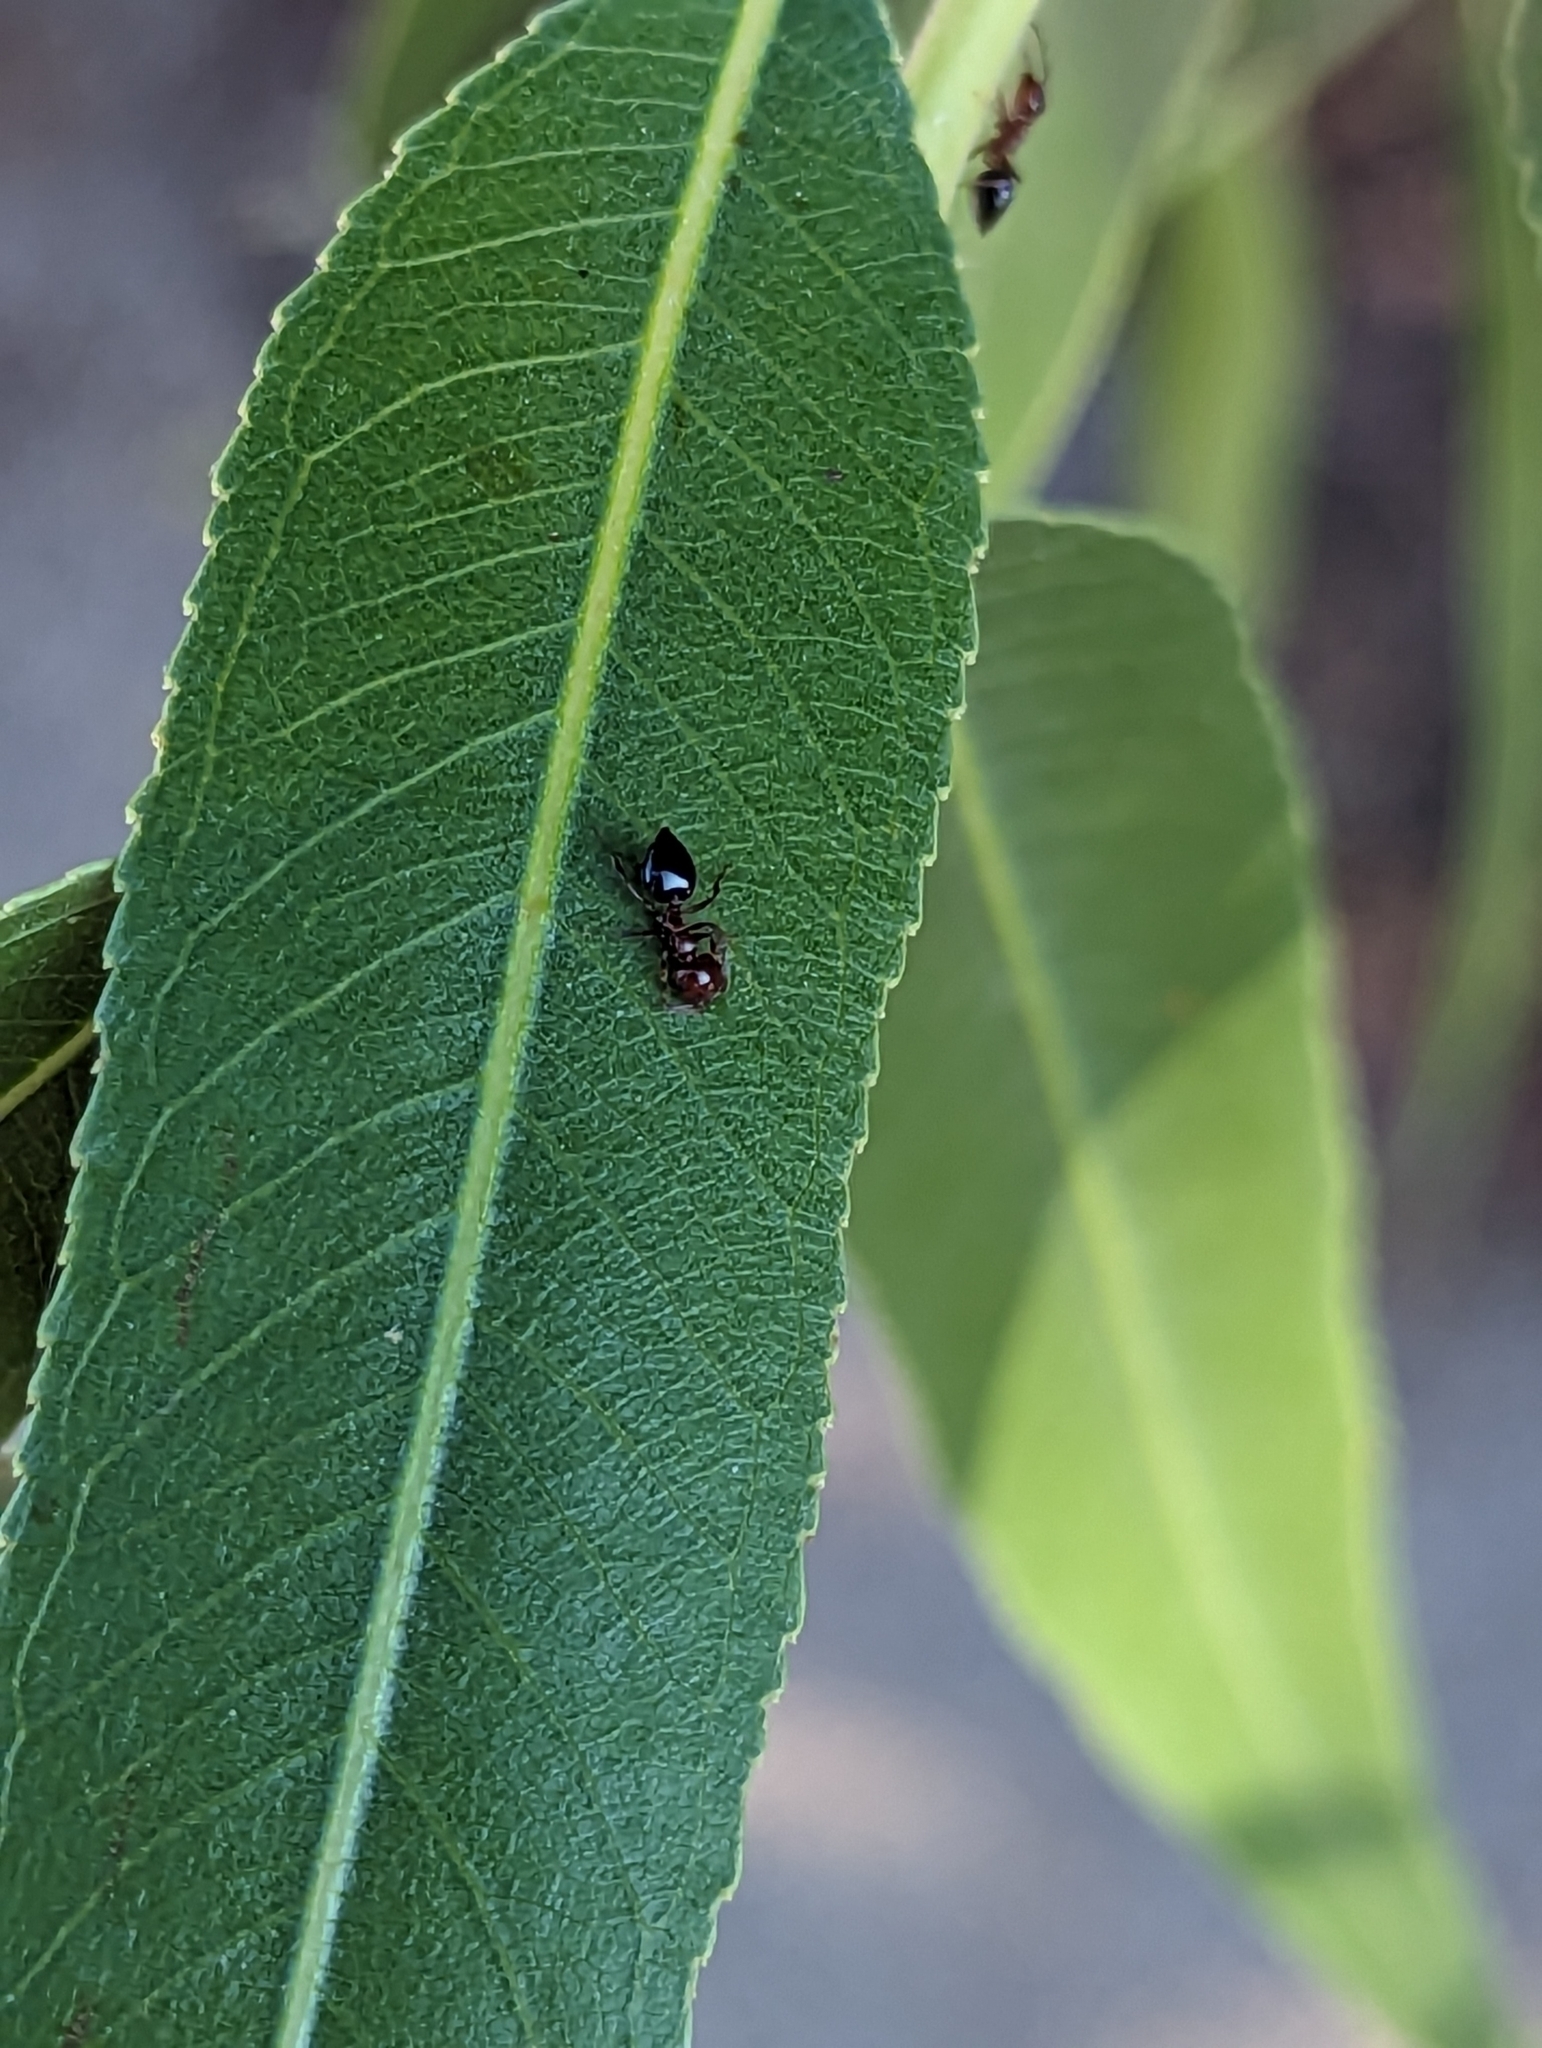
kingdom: Animalia
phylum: Arthropoda
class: Insecta
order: Hymenoptera
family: Formicidae
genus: Crematogaster
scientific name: Crematogaster
